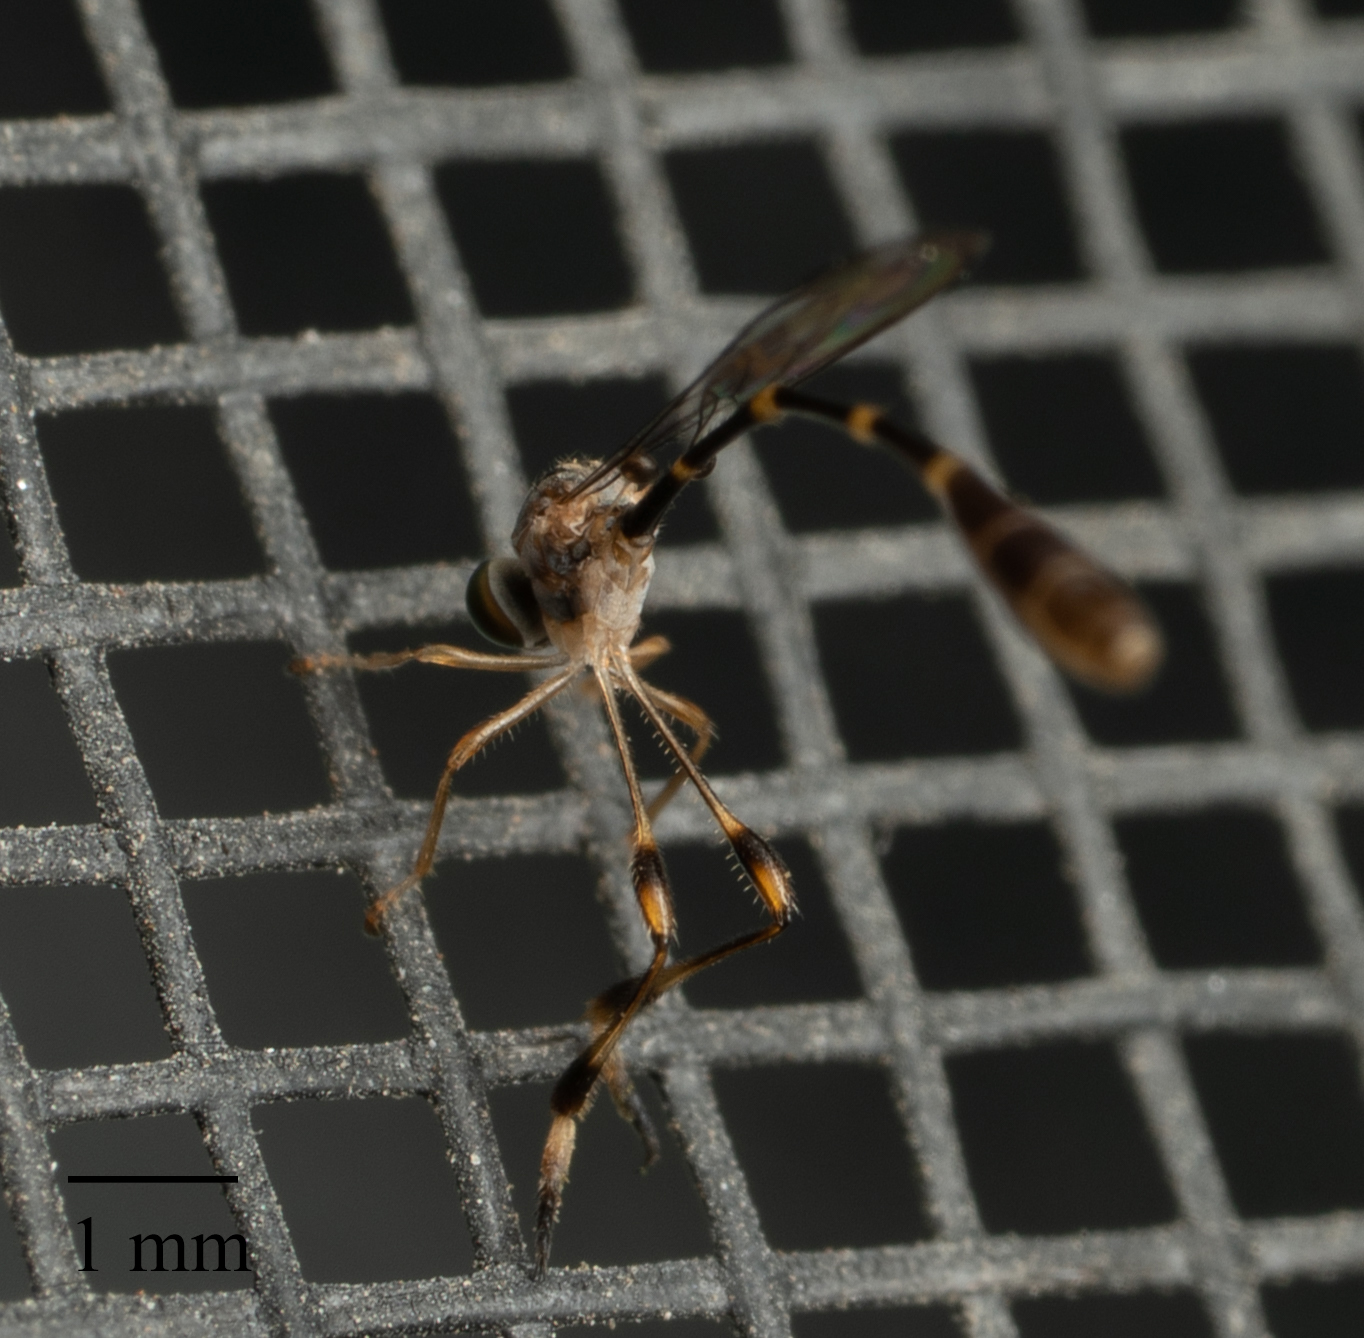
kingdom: Animalia
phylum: Arthropoda
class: Insecta
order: Diptera
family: Asilidae
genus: Leptopteromyia
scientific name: Leptopteromyia americana
